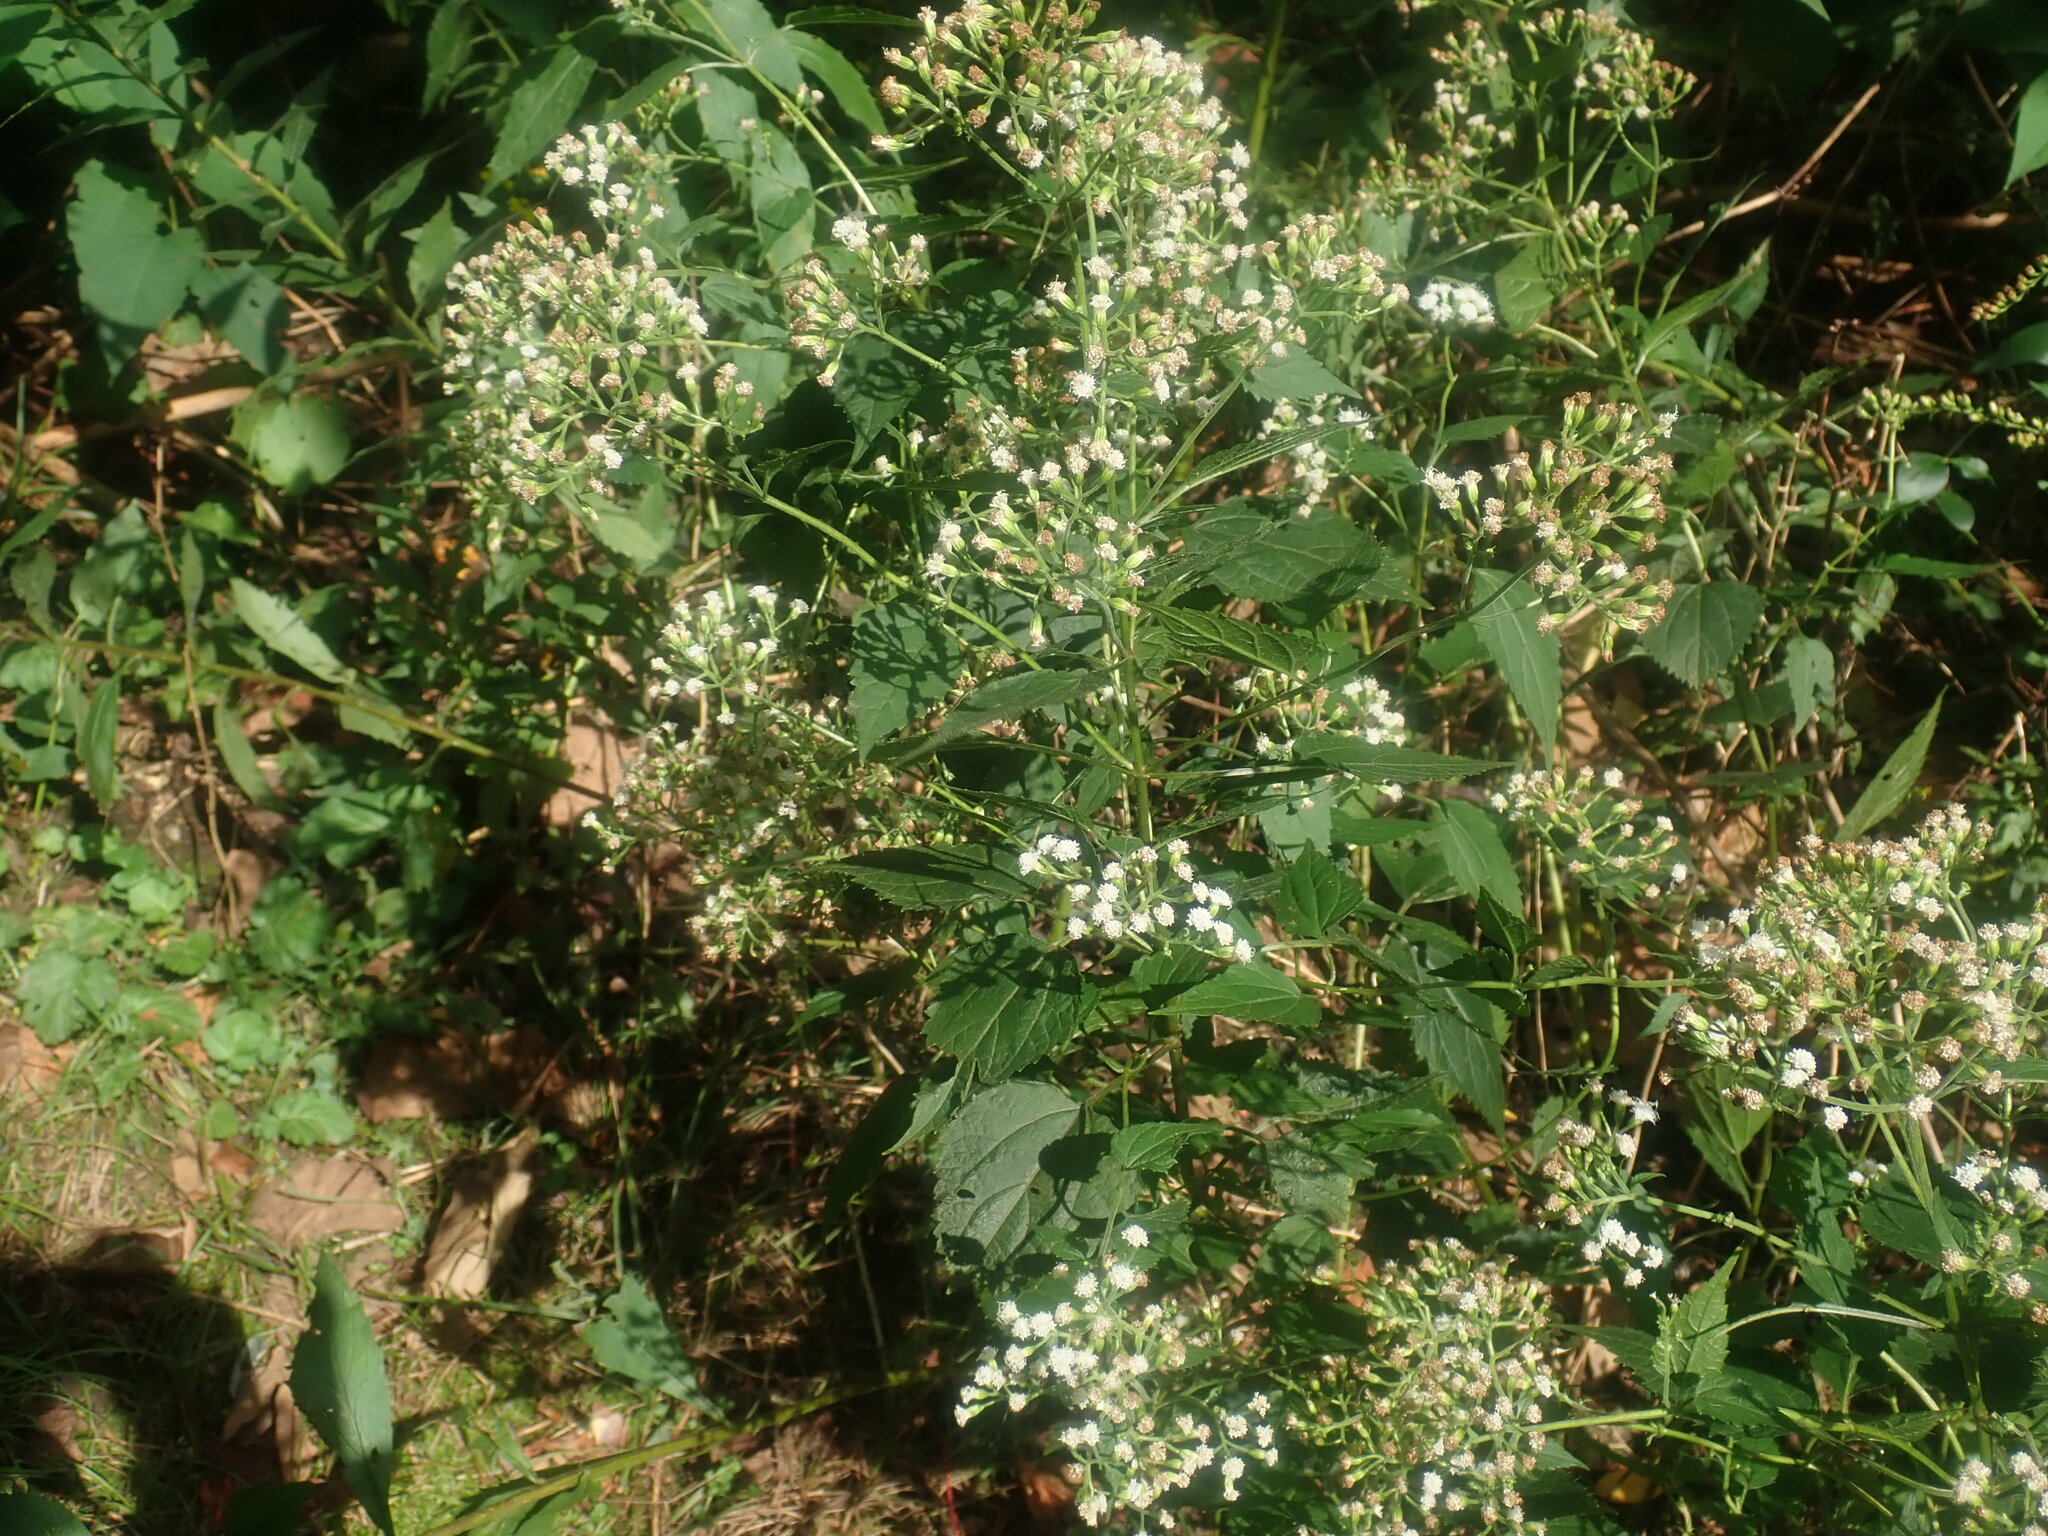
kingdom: Plantae
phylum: Tracheophyta
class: Magnoliopsida
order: Asterales
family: Asteraceae
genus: Ageratina
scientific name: Ageratina altissima
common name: White snakeroot
